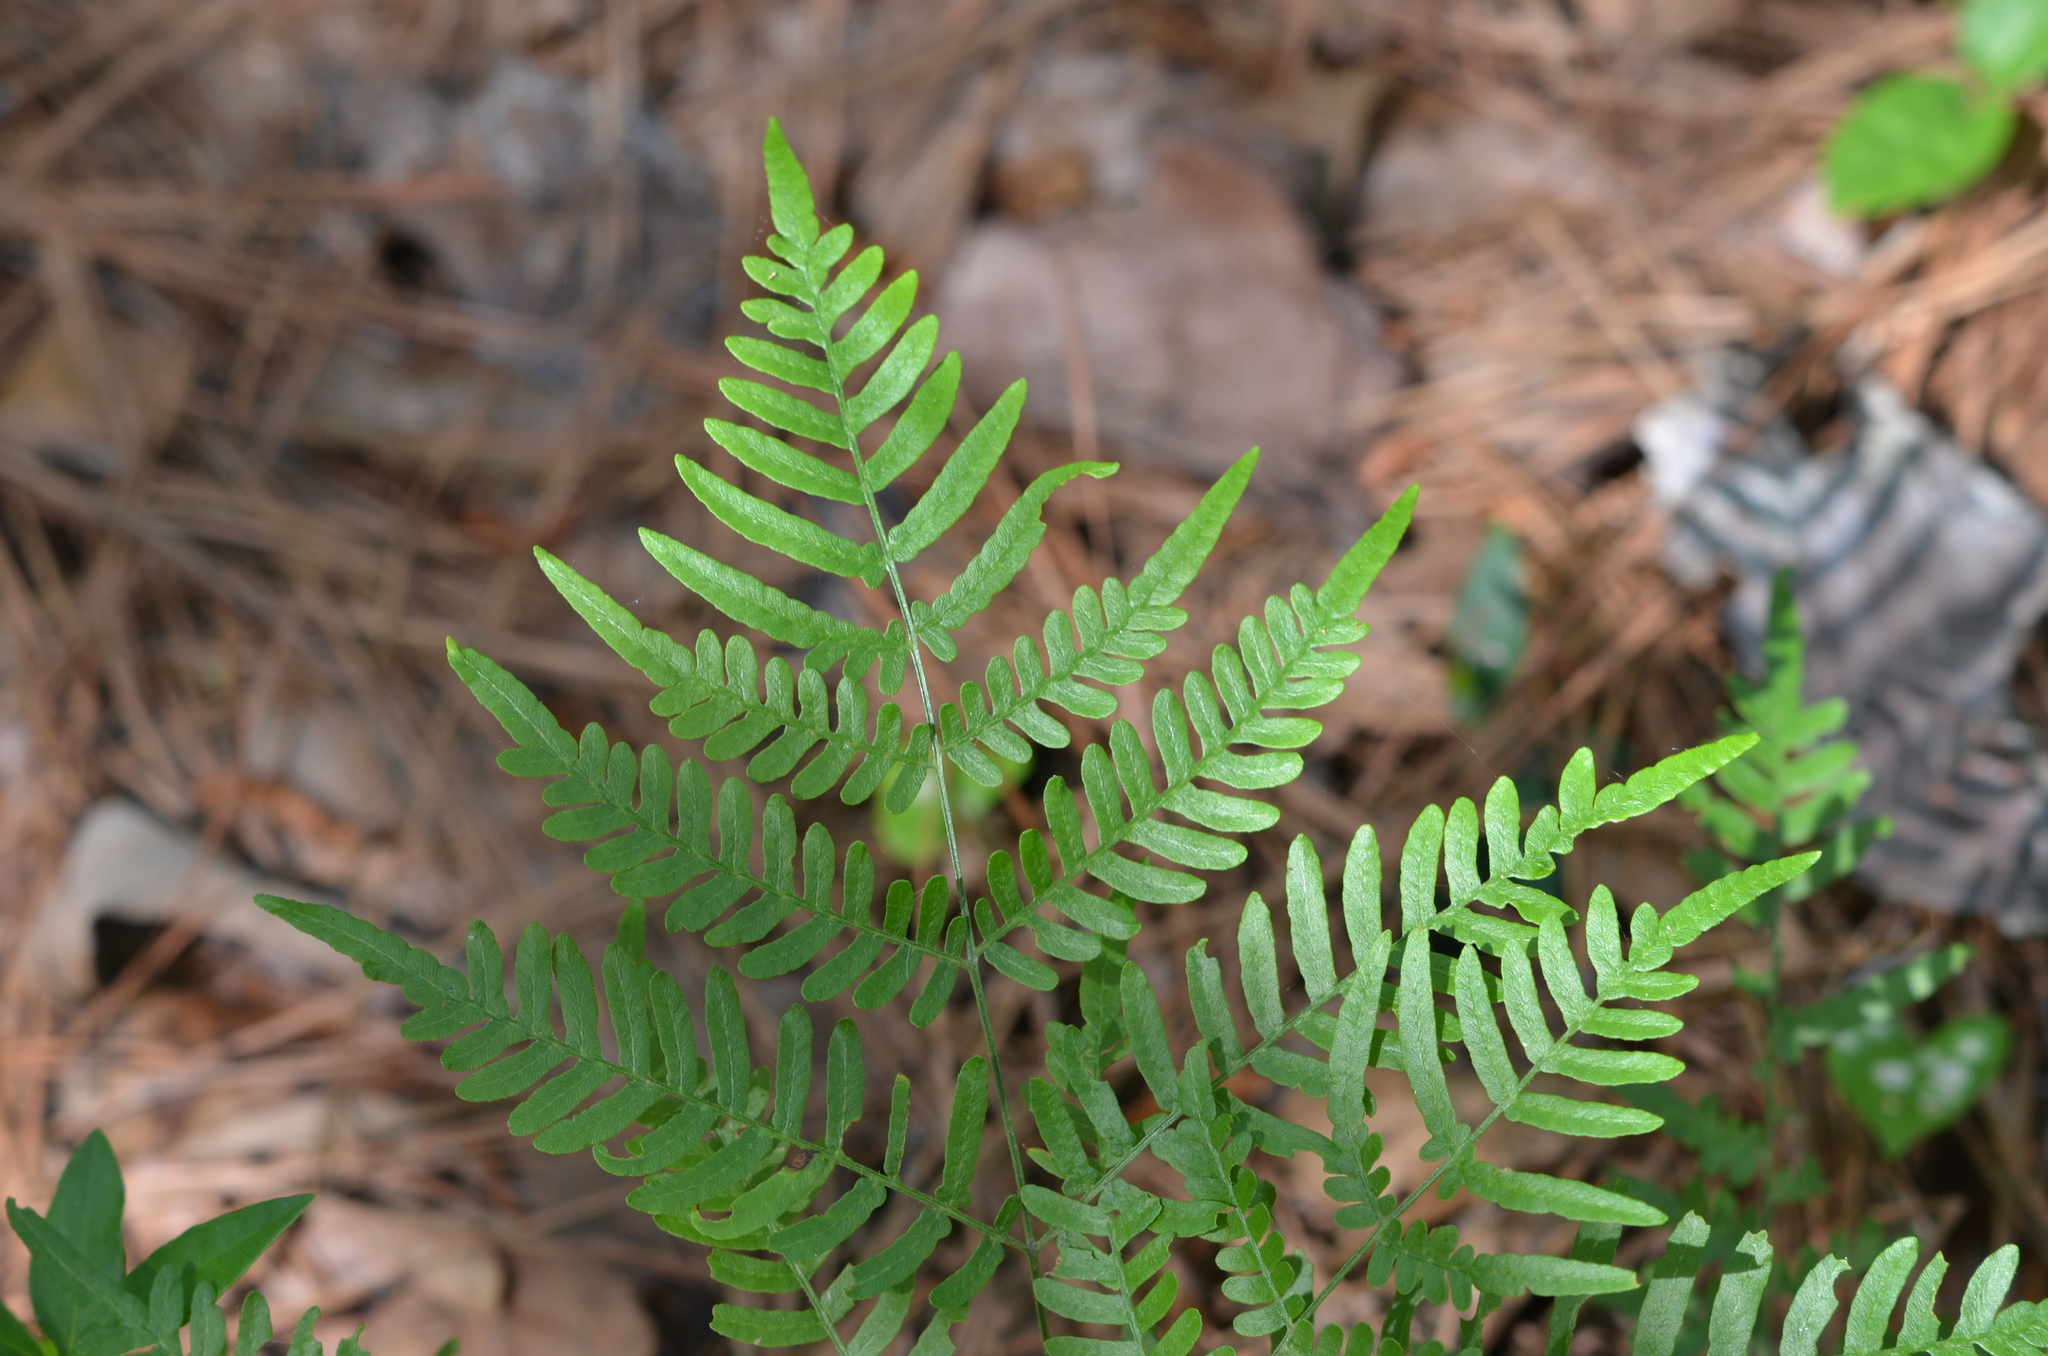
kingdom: Plantae
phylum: Tracheophyta
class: Polypodiopsida
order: Polypodiales
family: Dennstaedtiaceae
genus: Pteridium
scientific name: Pteridium aquilinum
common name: Bracken
